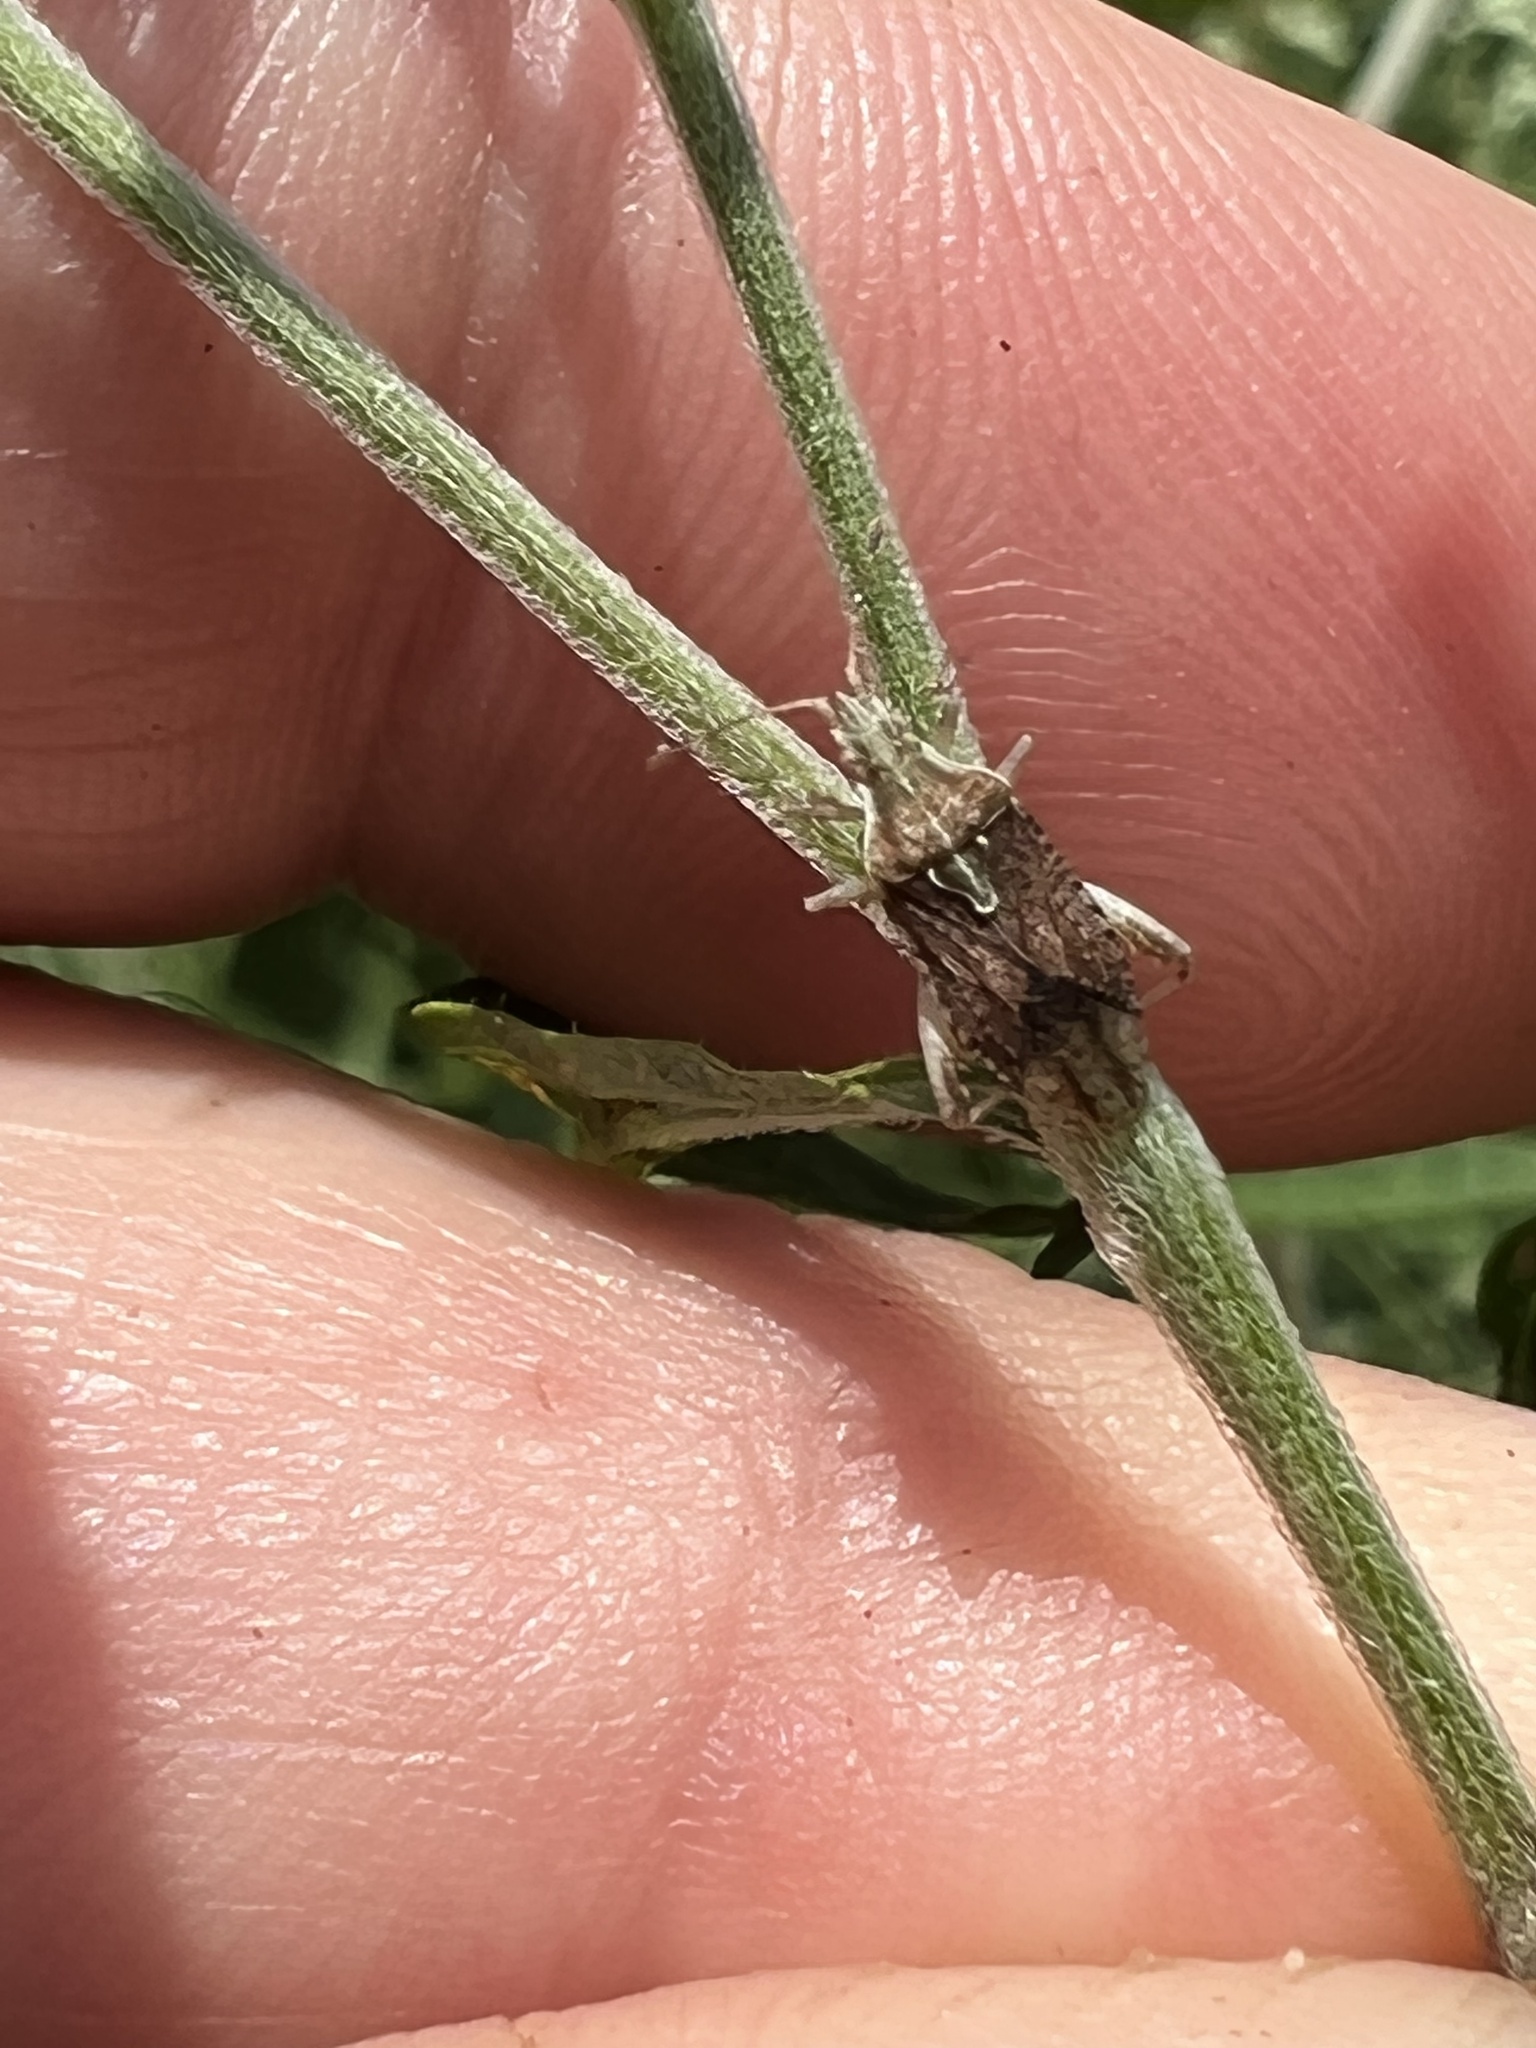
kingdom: Animalia
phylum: Arthropoda
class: Insecta
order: Hemiptera
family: Rhopalidae
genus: Harmostes
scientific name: Harmostes fraterculus
